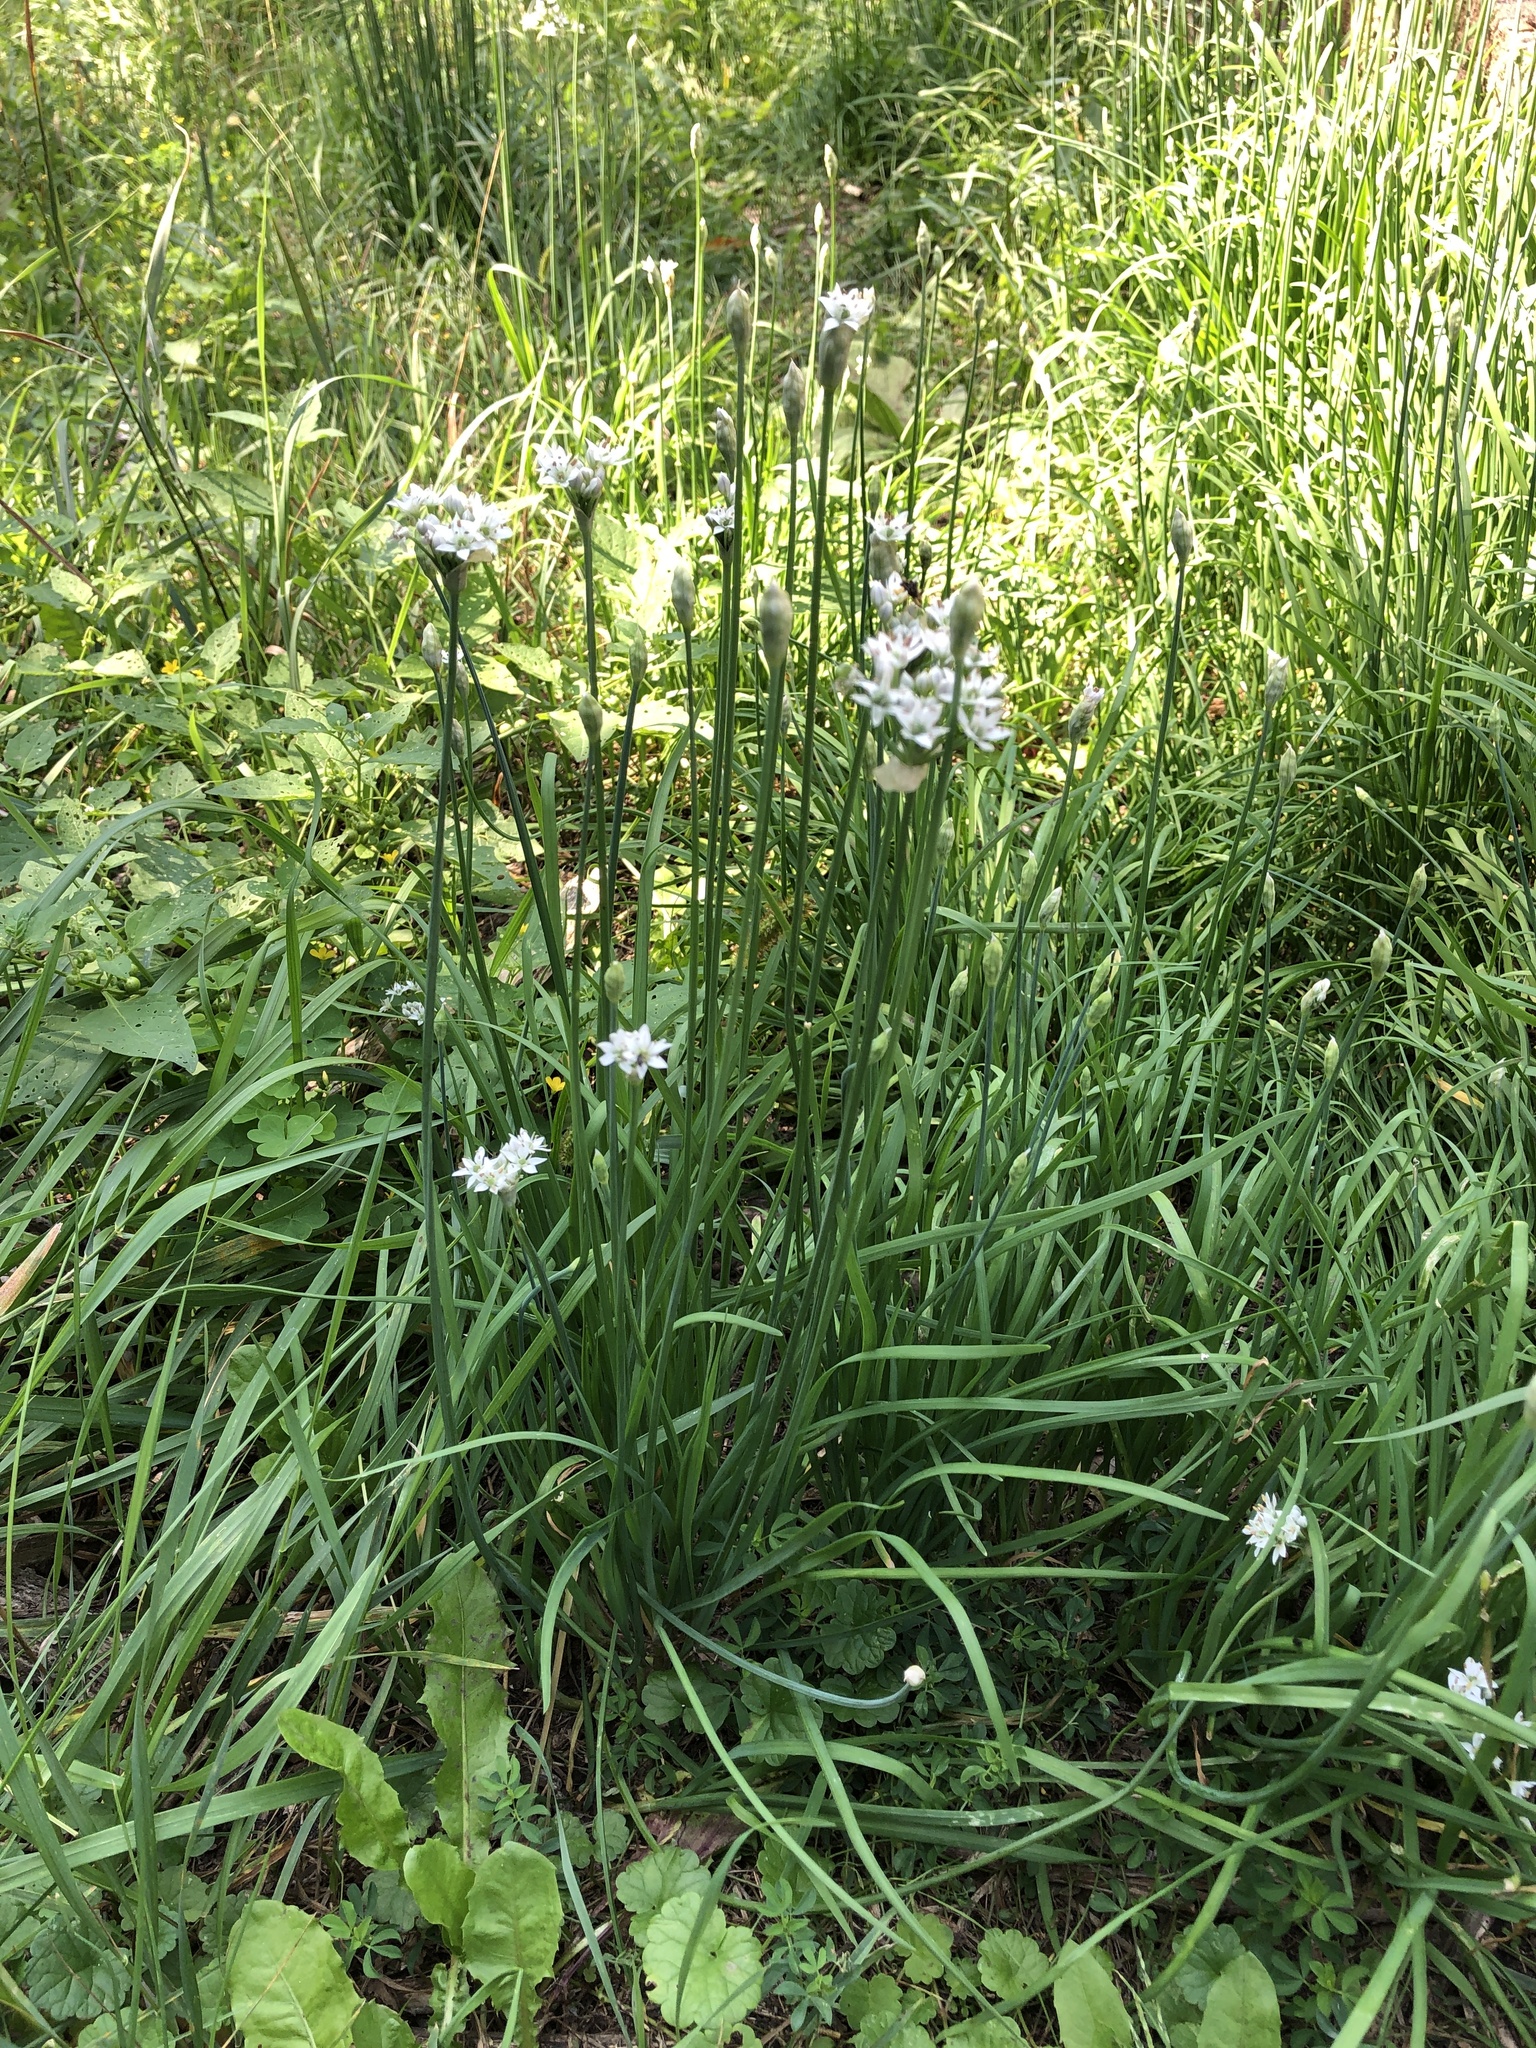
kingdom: Plantae
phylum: Tracheophyta
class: Liliopsida
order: Asparagales
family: Amaryllidaceae
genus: Allium
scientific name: Allium tuberosum
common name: Chinese chives
